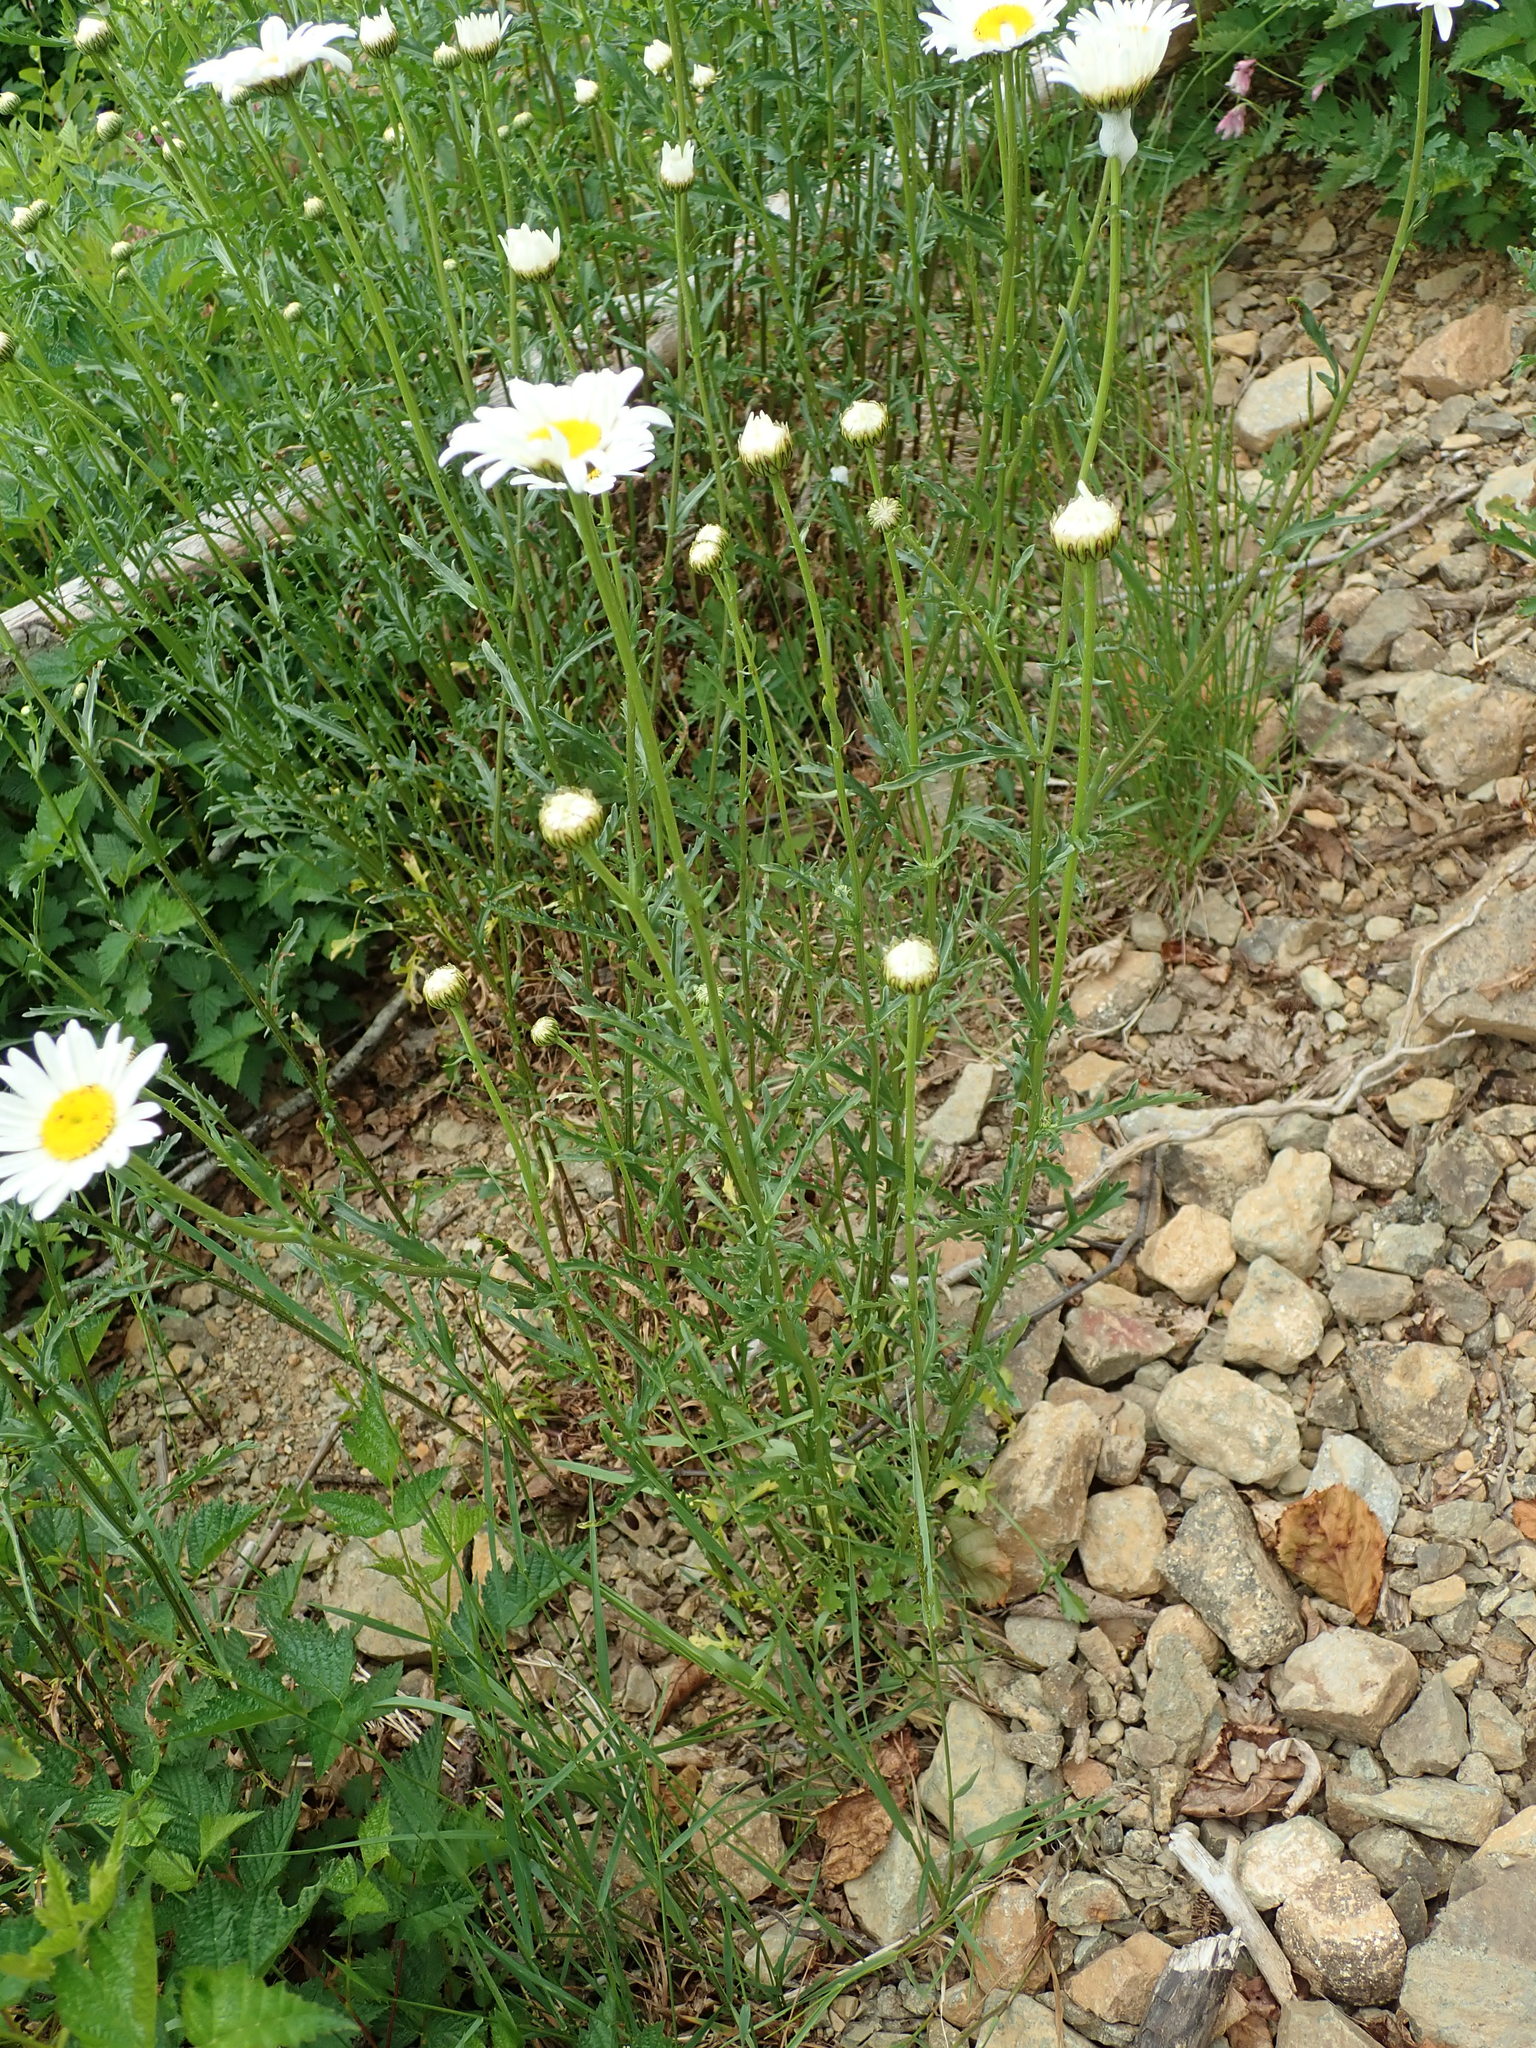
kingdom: Plantae
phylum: Tracheophyta
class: Magnoliopsida
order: Asterales
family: Asteraceae
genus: Leucanthemum
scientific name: Leucanthemum vulgare
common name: Oxeye daisy
